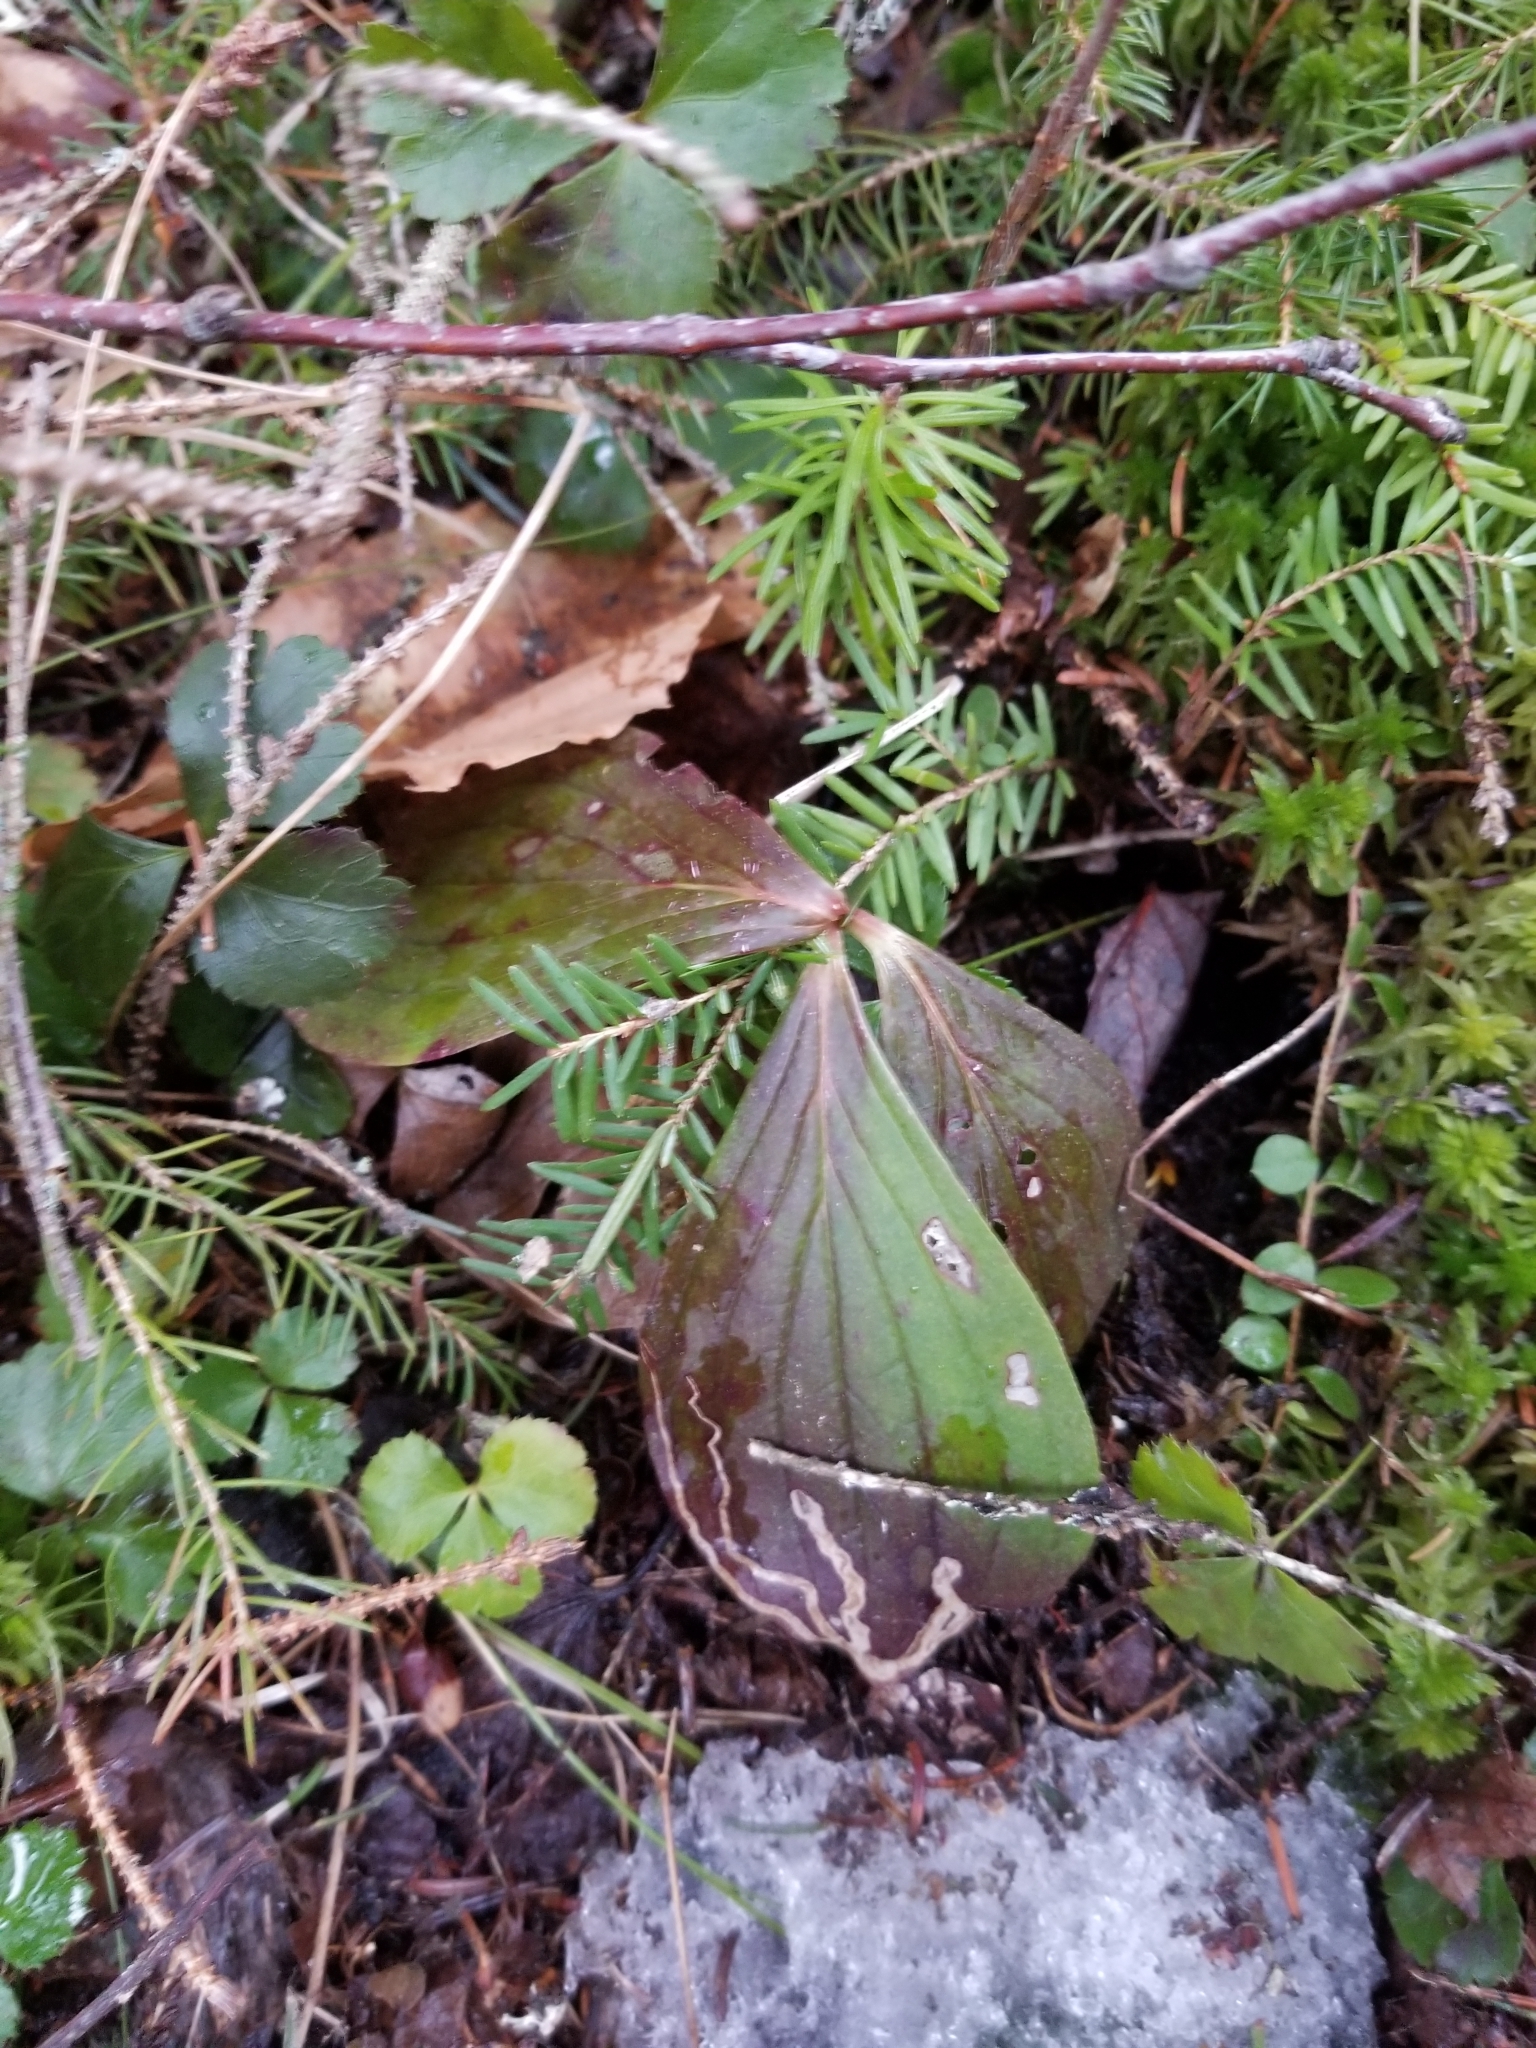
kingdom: Plantae
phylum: Tracheophyta
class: Magnoliopsida
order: Cornales
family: Cornaceae
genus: Cornus
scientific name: Cornus canadensis
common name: Creeping dogwood
